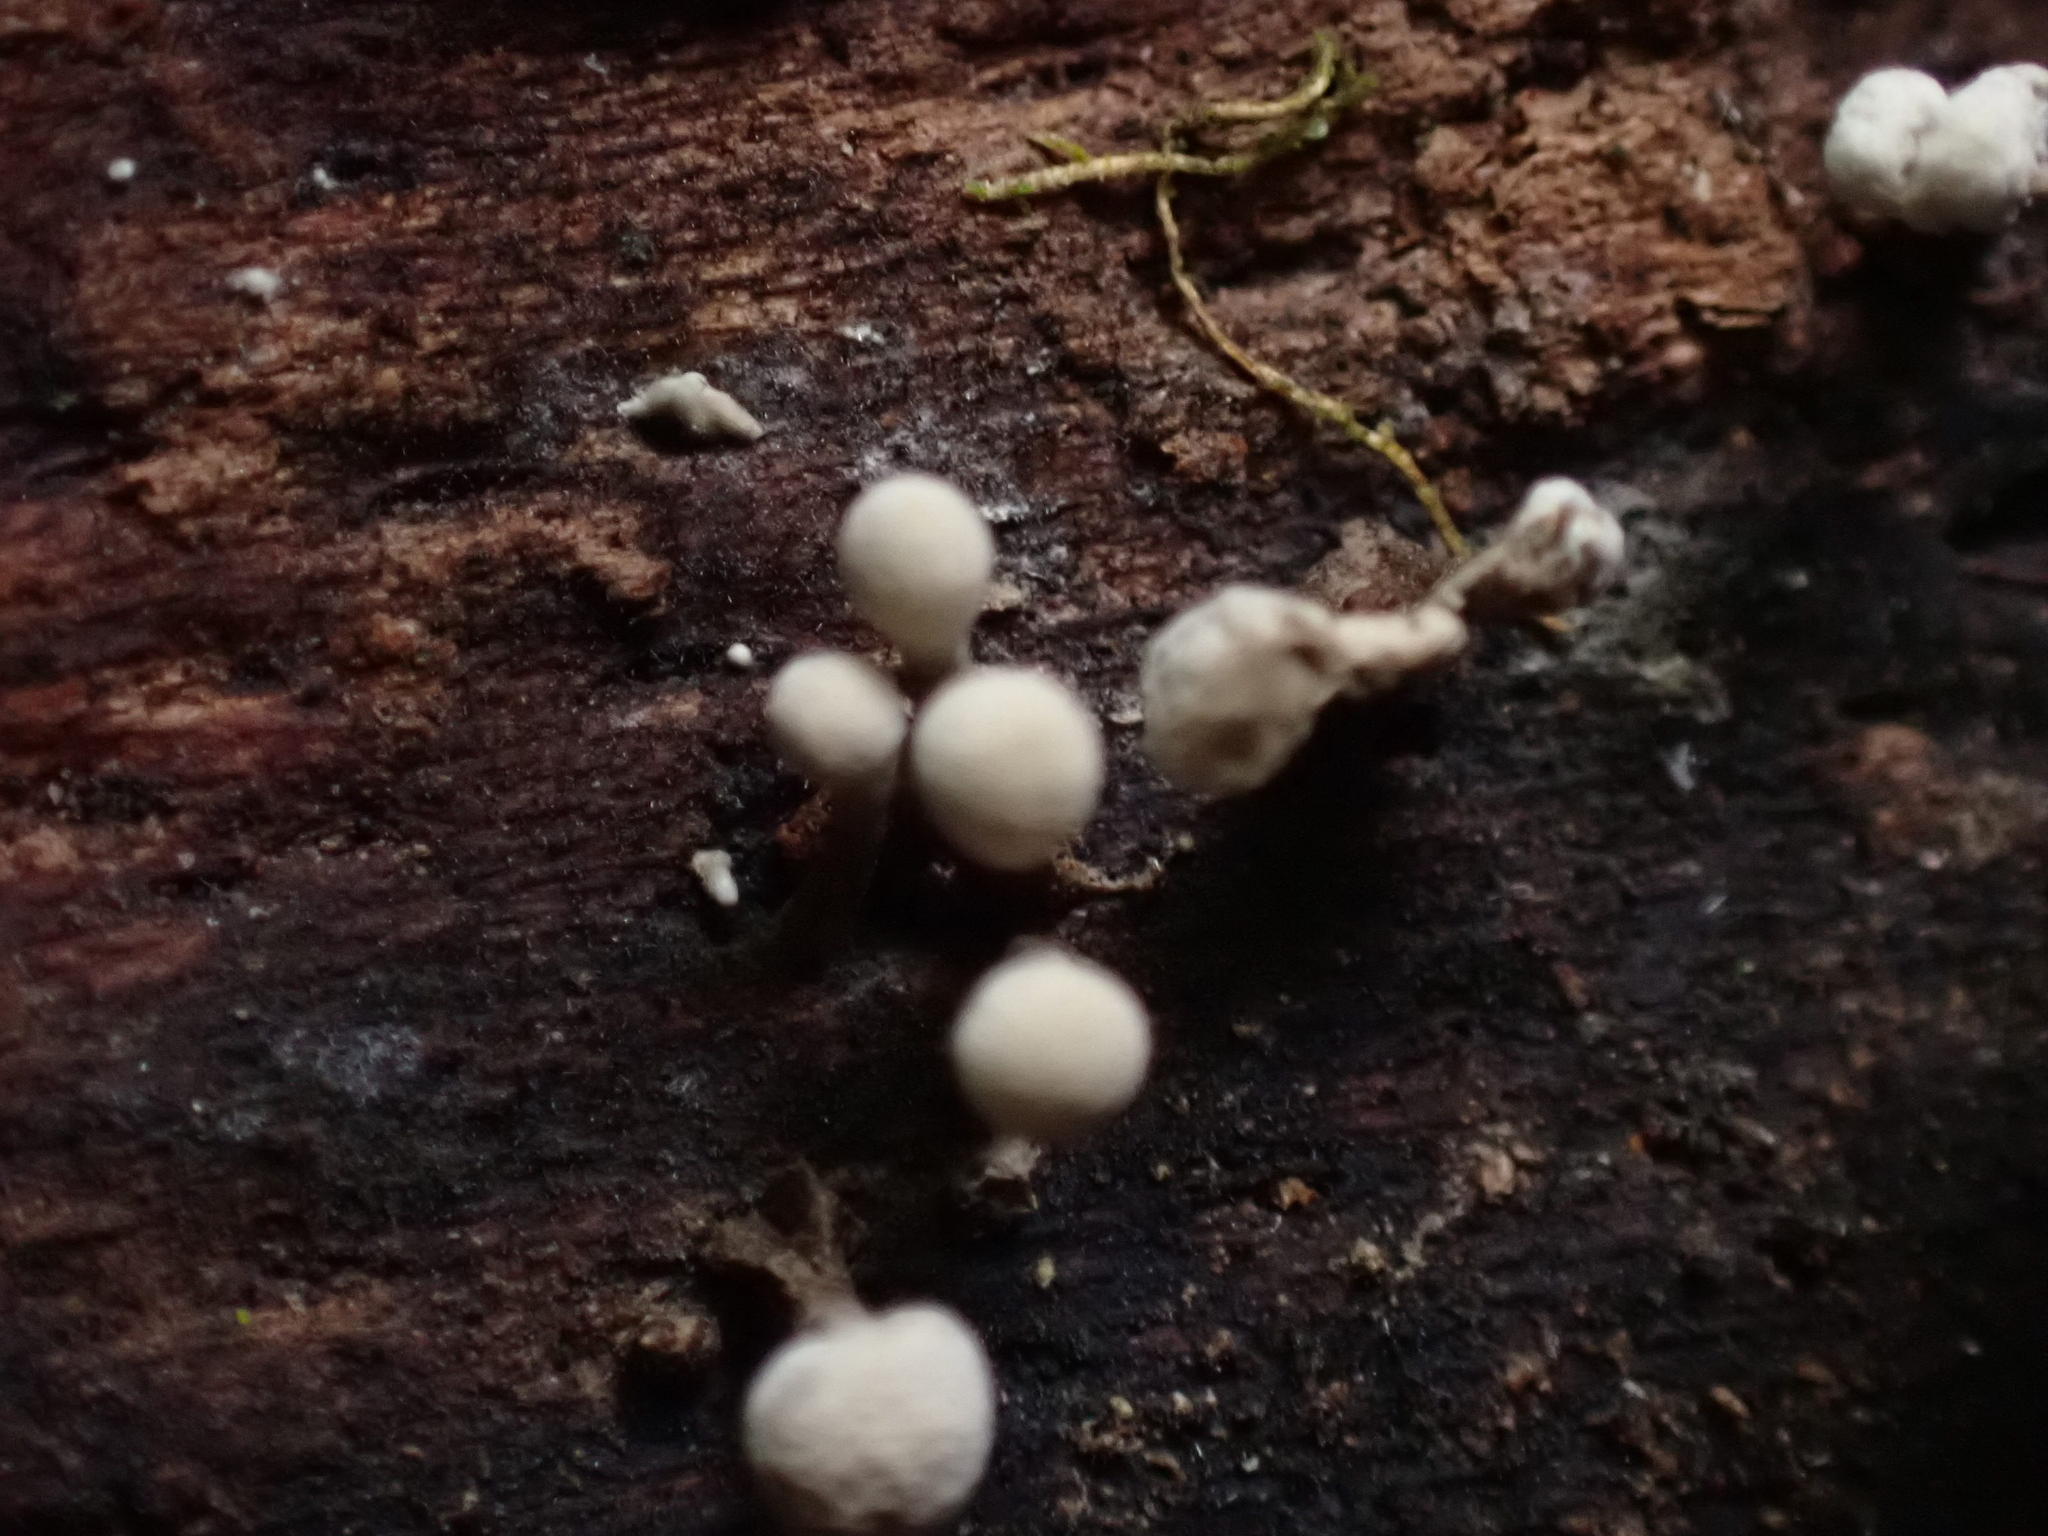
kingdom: Fungi
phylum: Basidiomycota
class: Atractiellomycetes
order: Atractiellales
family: Phleogenaceae
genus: Phleogena
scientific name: Phleogena faginea
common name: Fenugreek stalkball
